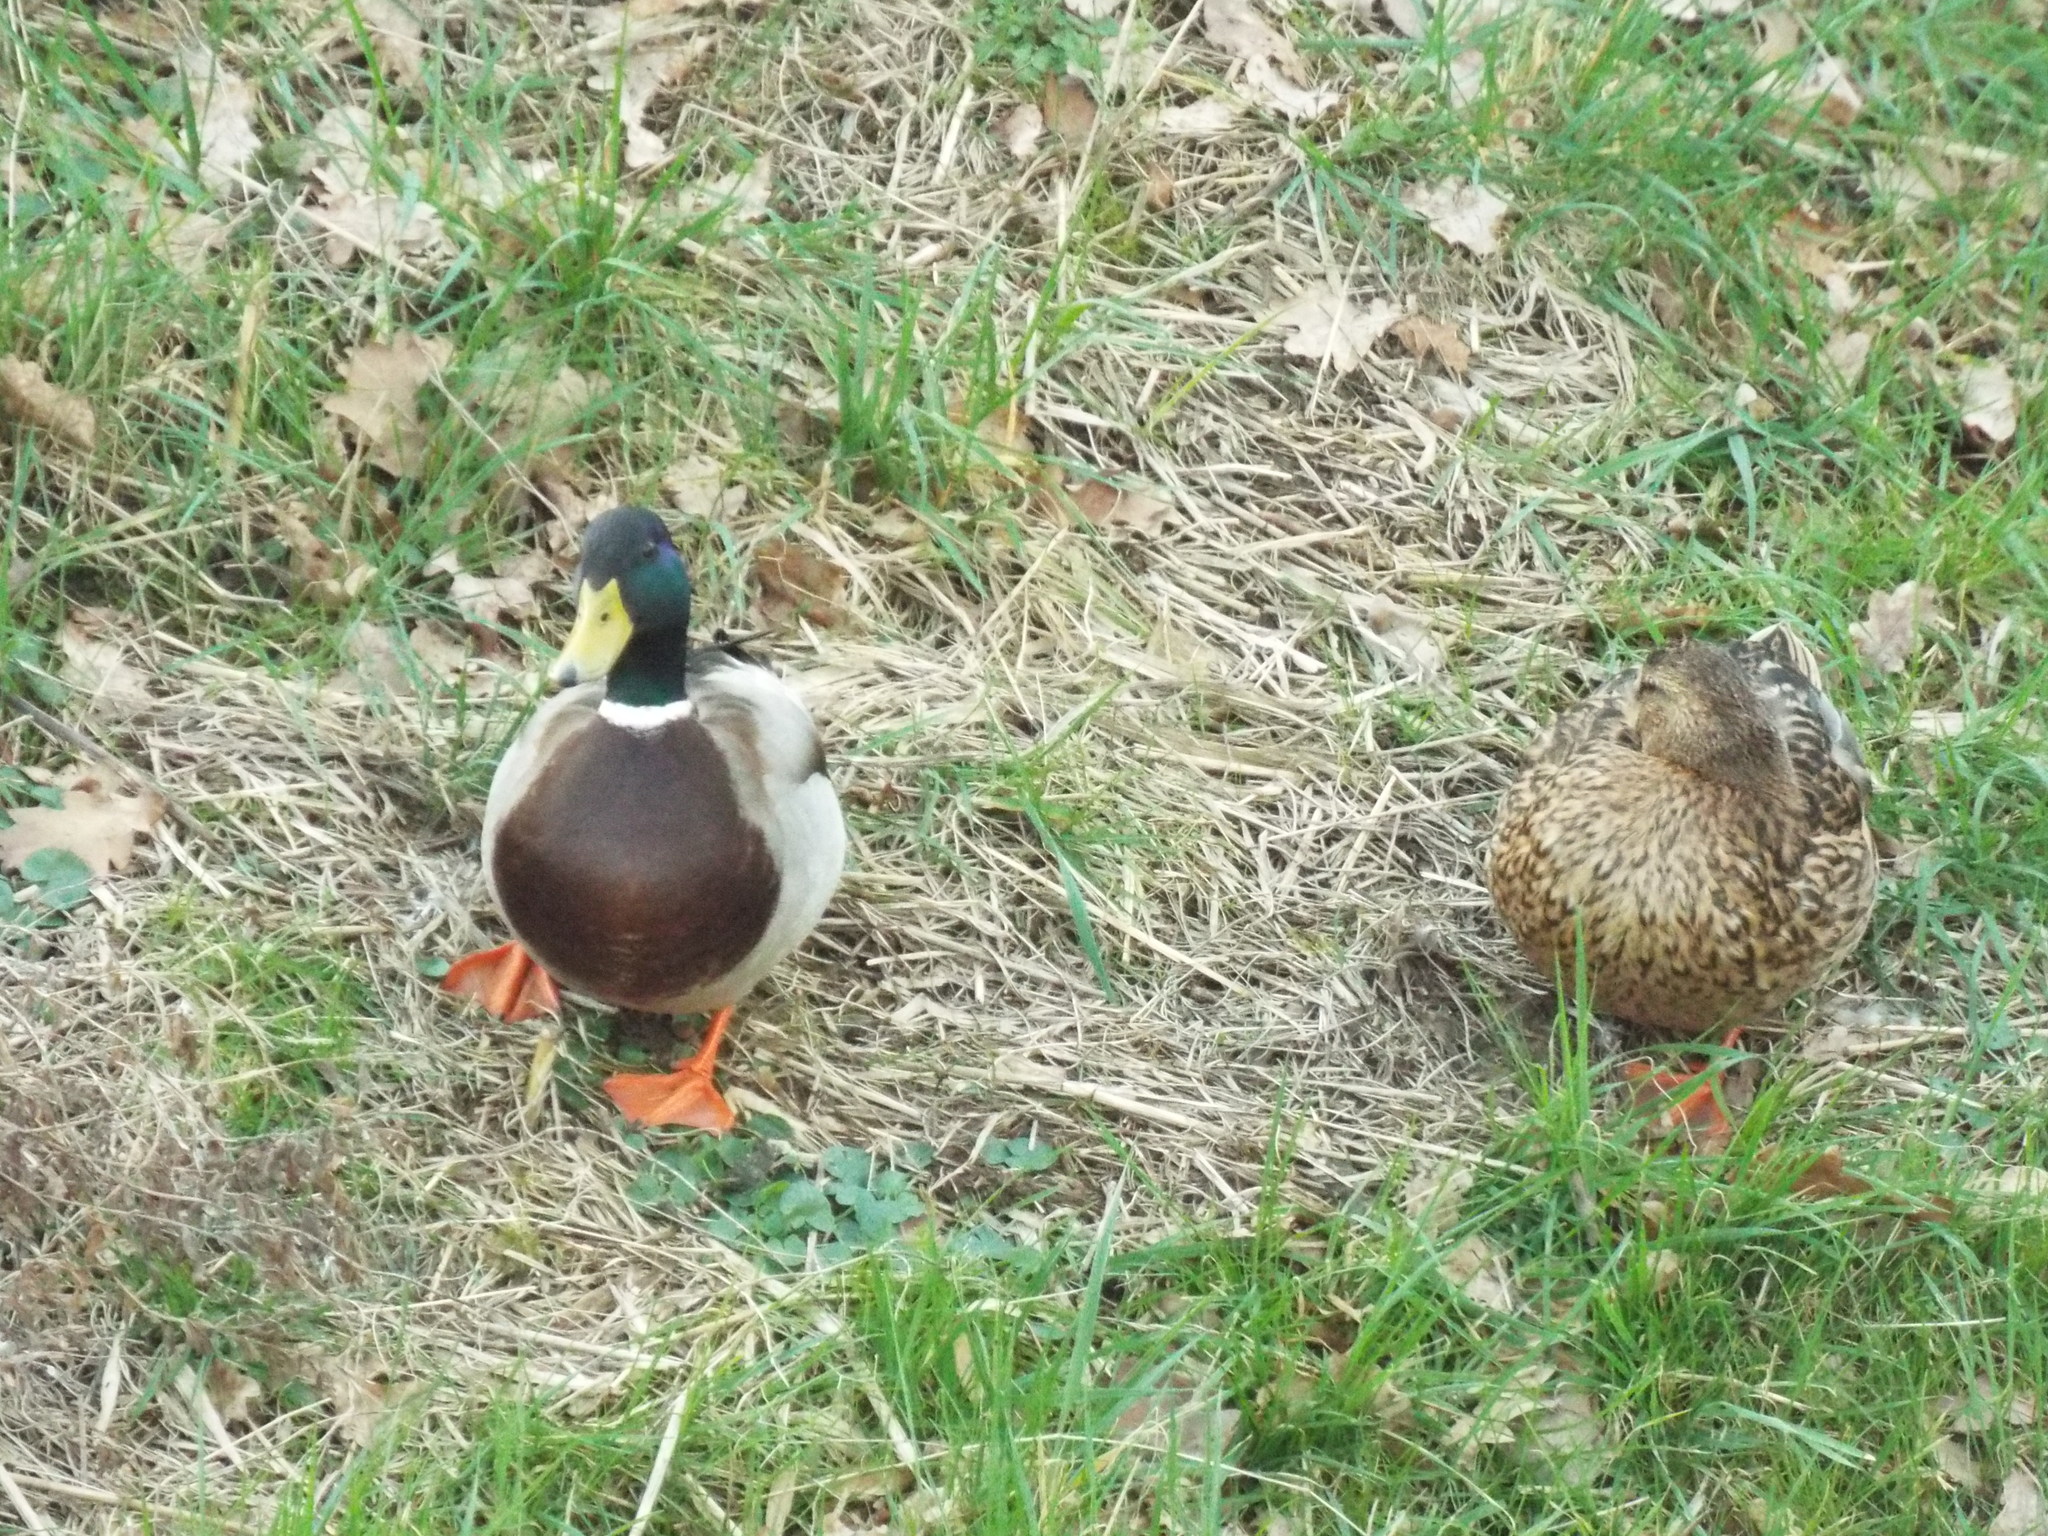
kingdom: Animalia
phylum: Chordata
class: Aves
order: Anseriformes
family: Anatidae
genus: Anas
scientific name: Anas platyrhynchos
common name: Mallard
